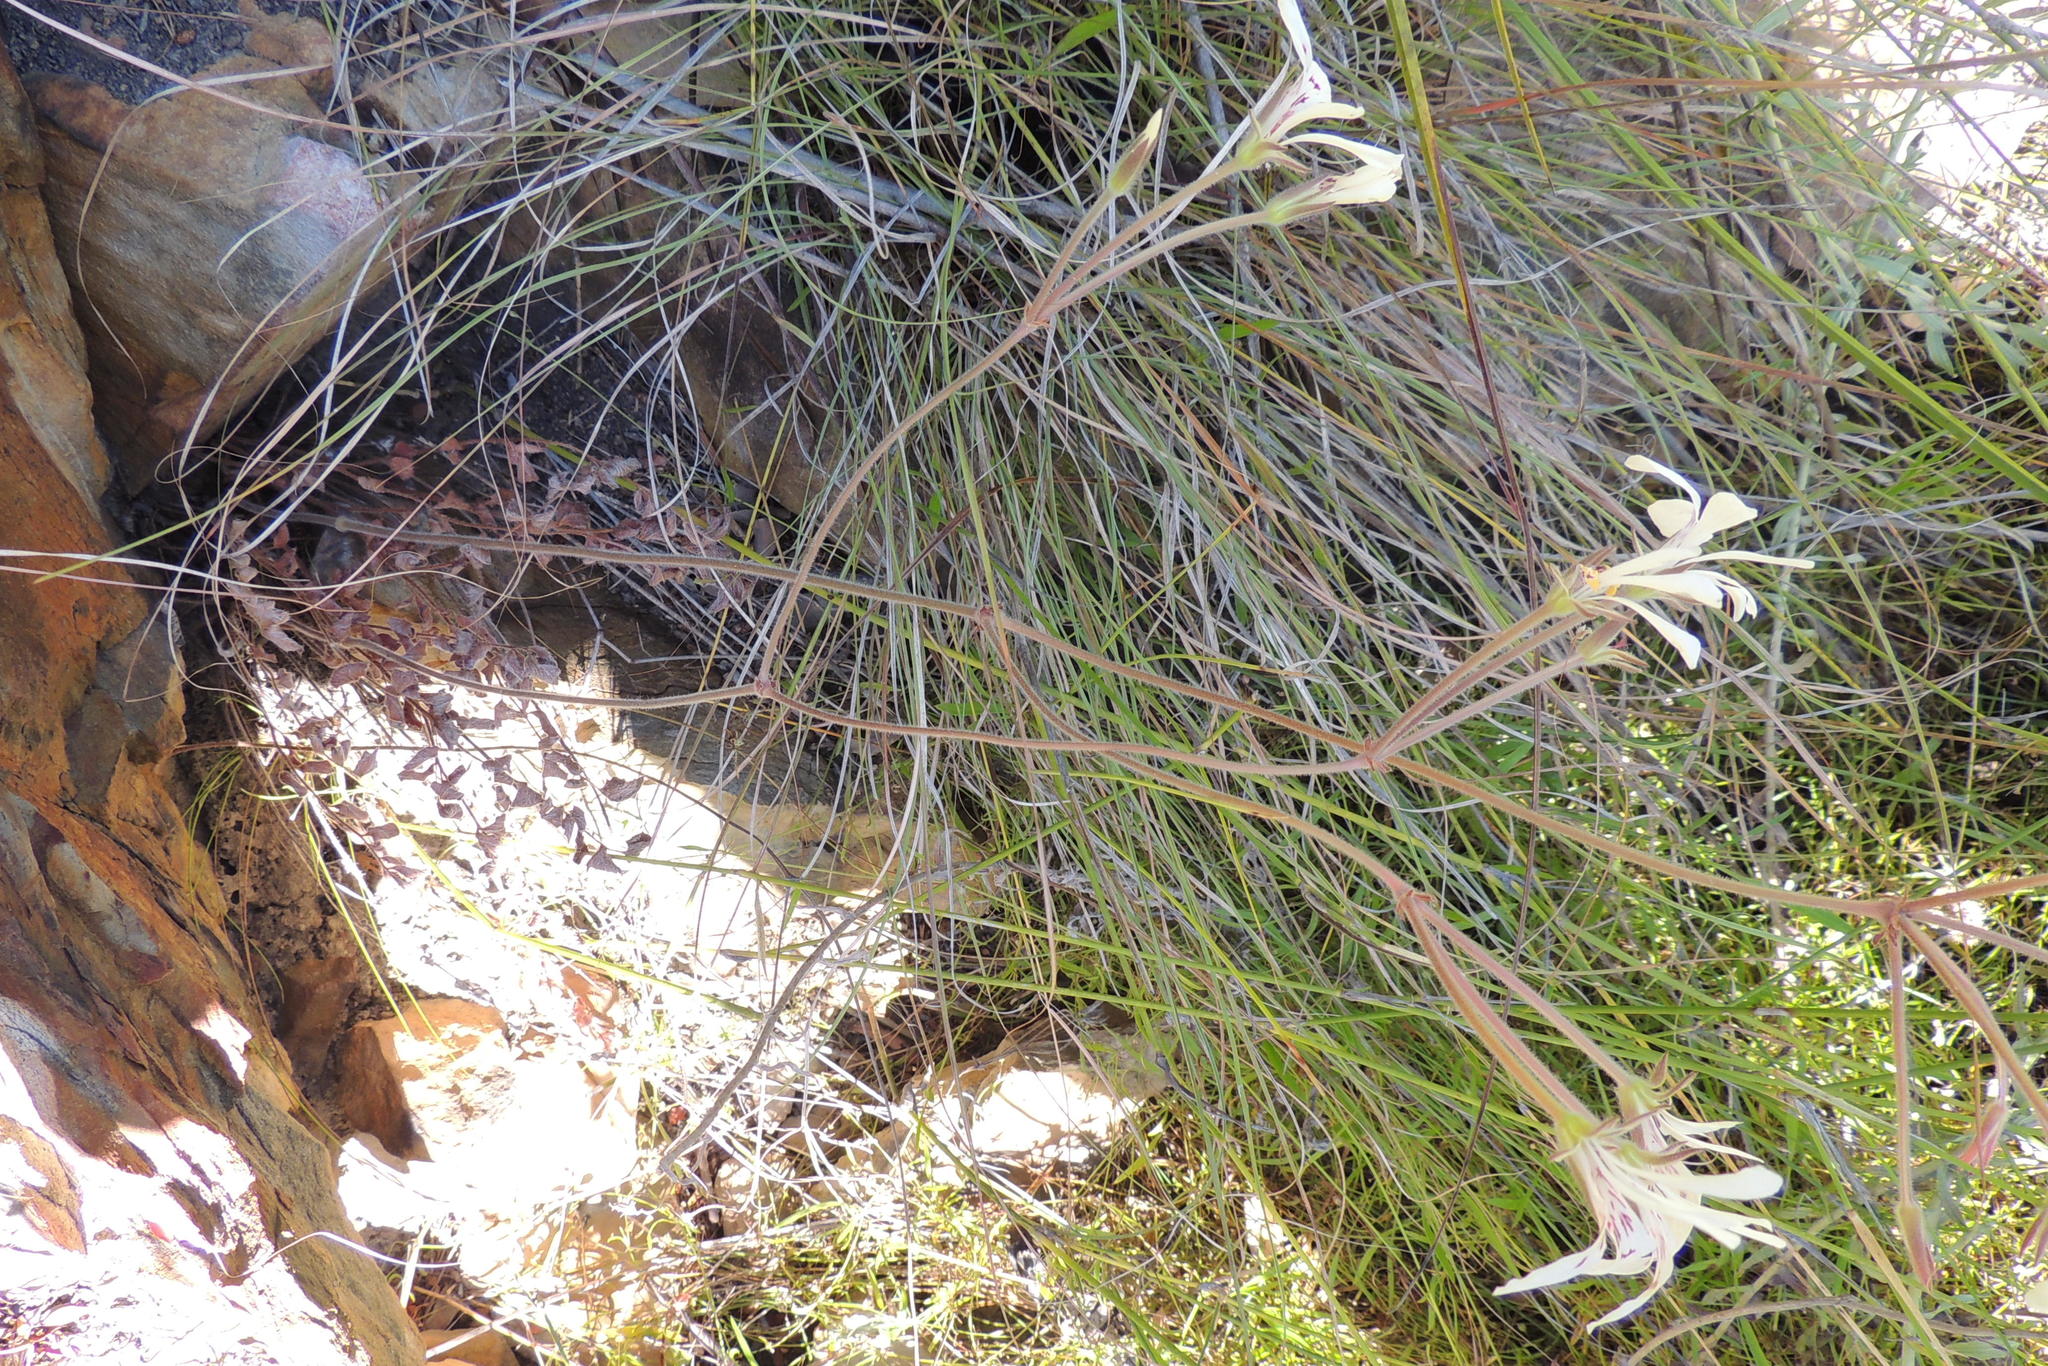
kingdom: Plantae
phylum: Tracheophyta
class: Magnoliopsida
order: Geraniales
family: Geraniaceae
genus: Pelargonium
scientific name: Pelargonium pinnatum
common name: Pinnated pelargonium
